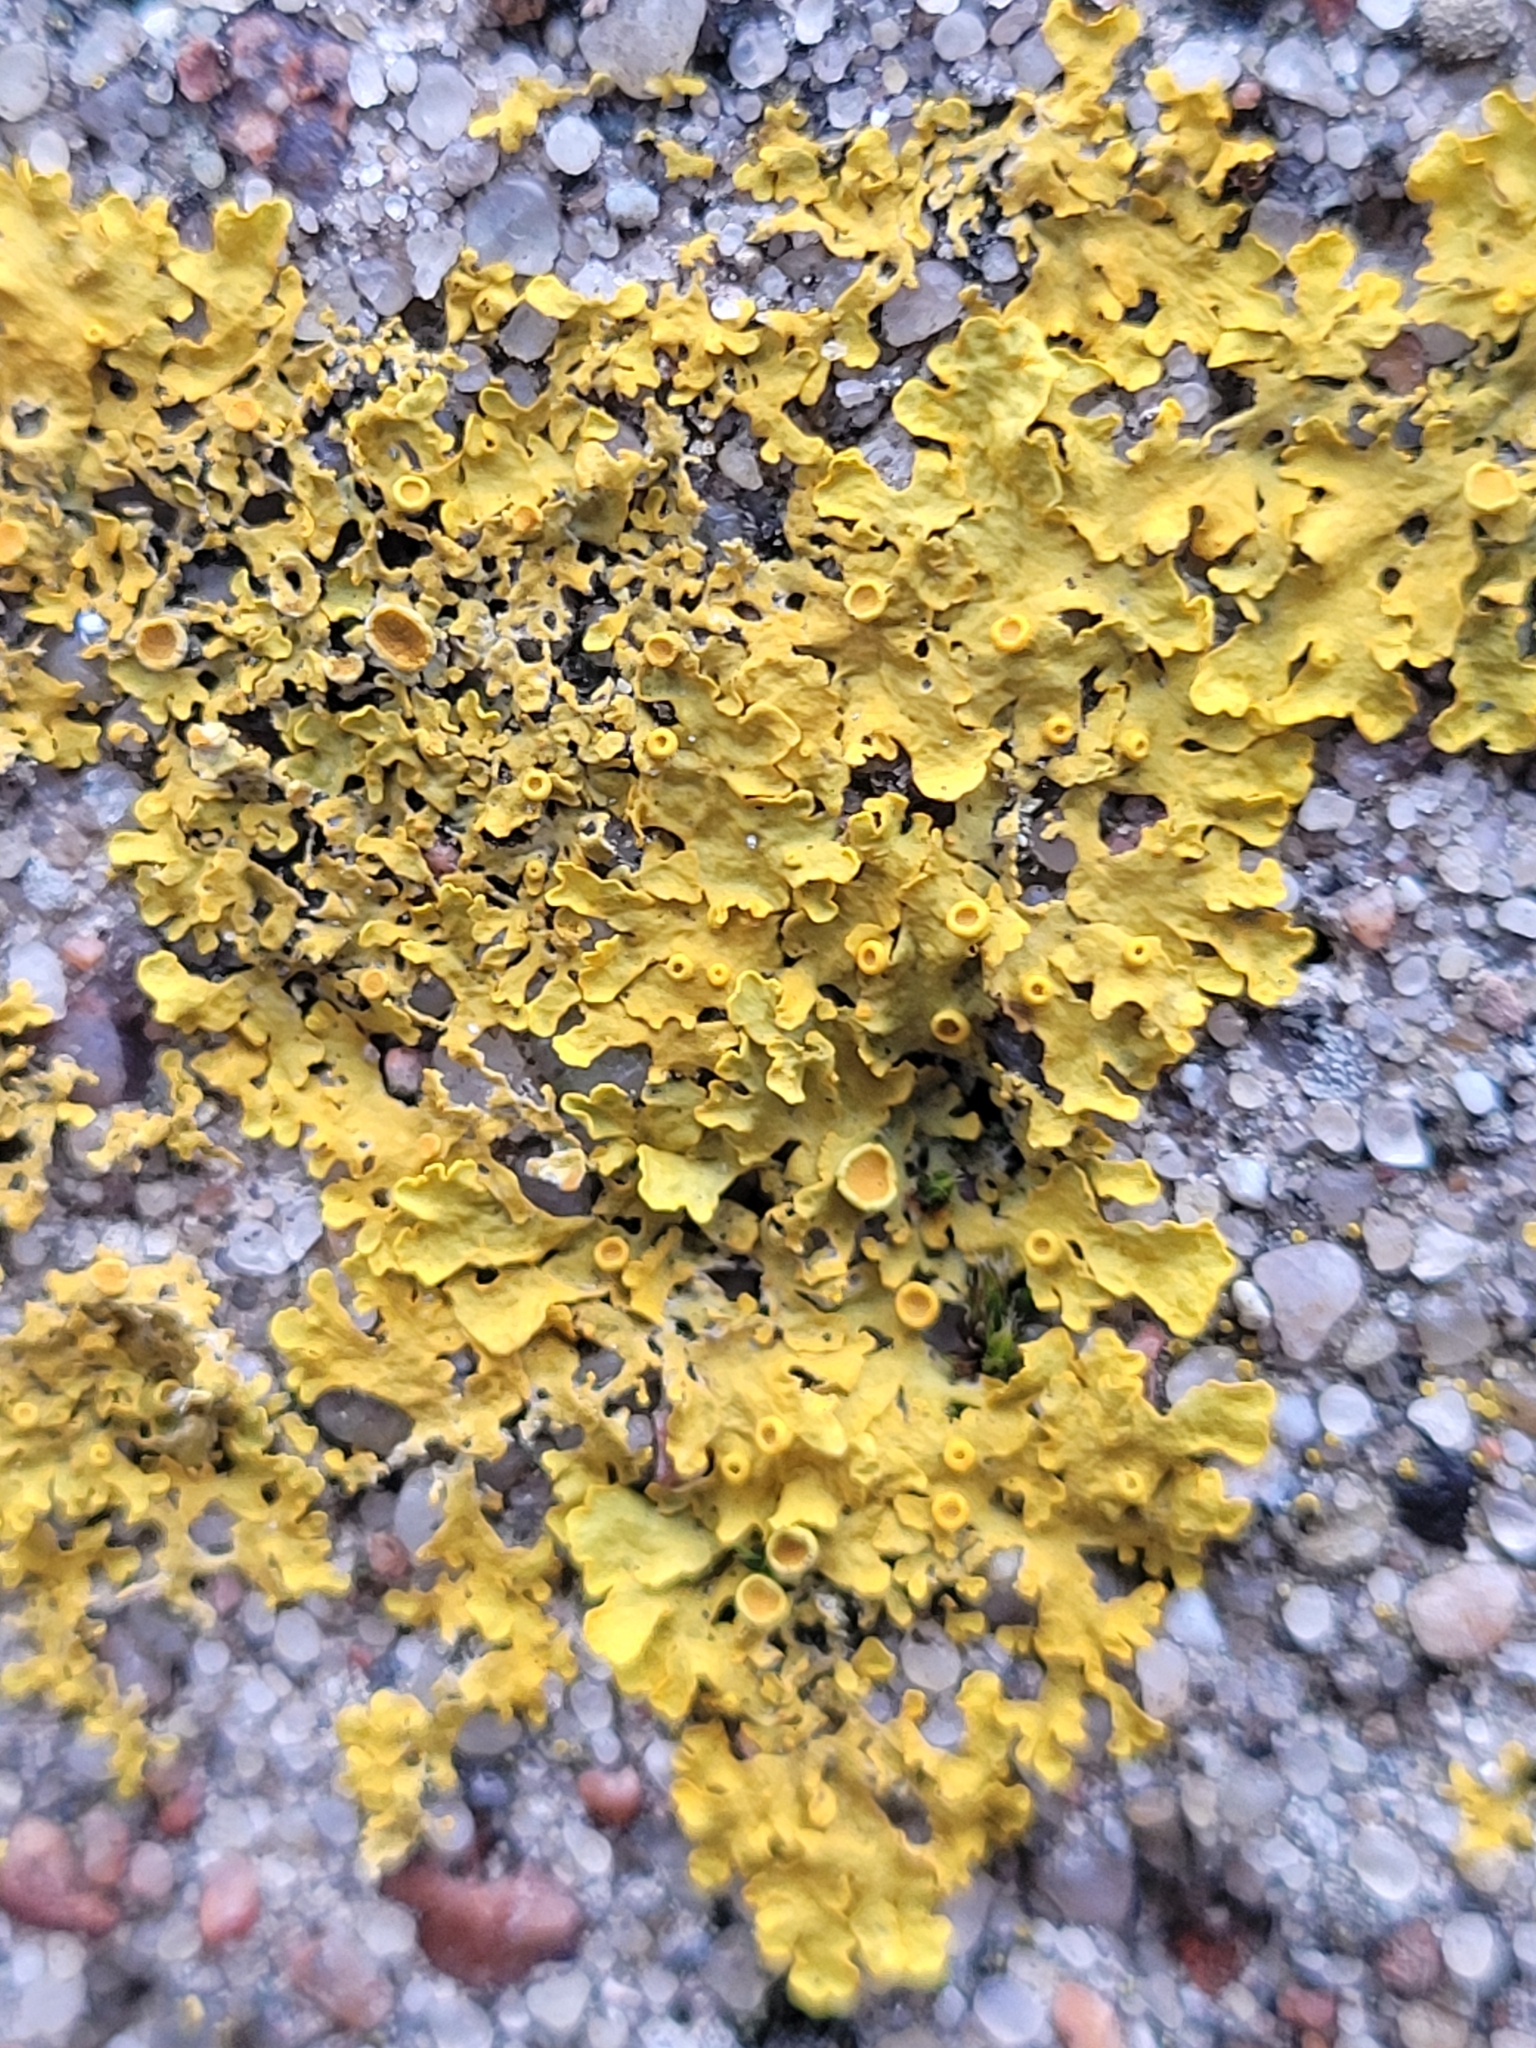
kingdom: Fungi
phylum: Ascomycota
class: Lecanoromycetes
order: Teloschistales
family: Teloschistaceae
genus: Xanthoria
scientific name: Xanthoria parietina
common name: Common orange lichen
